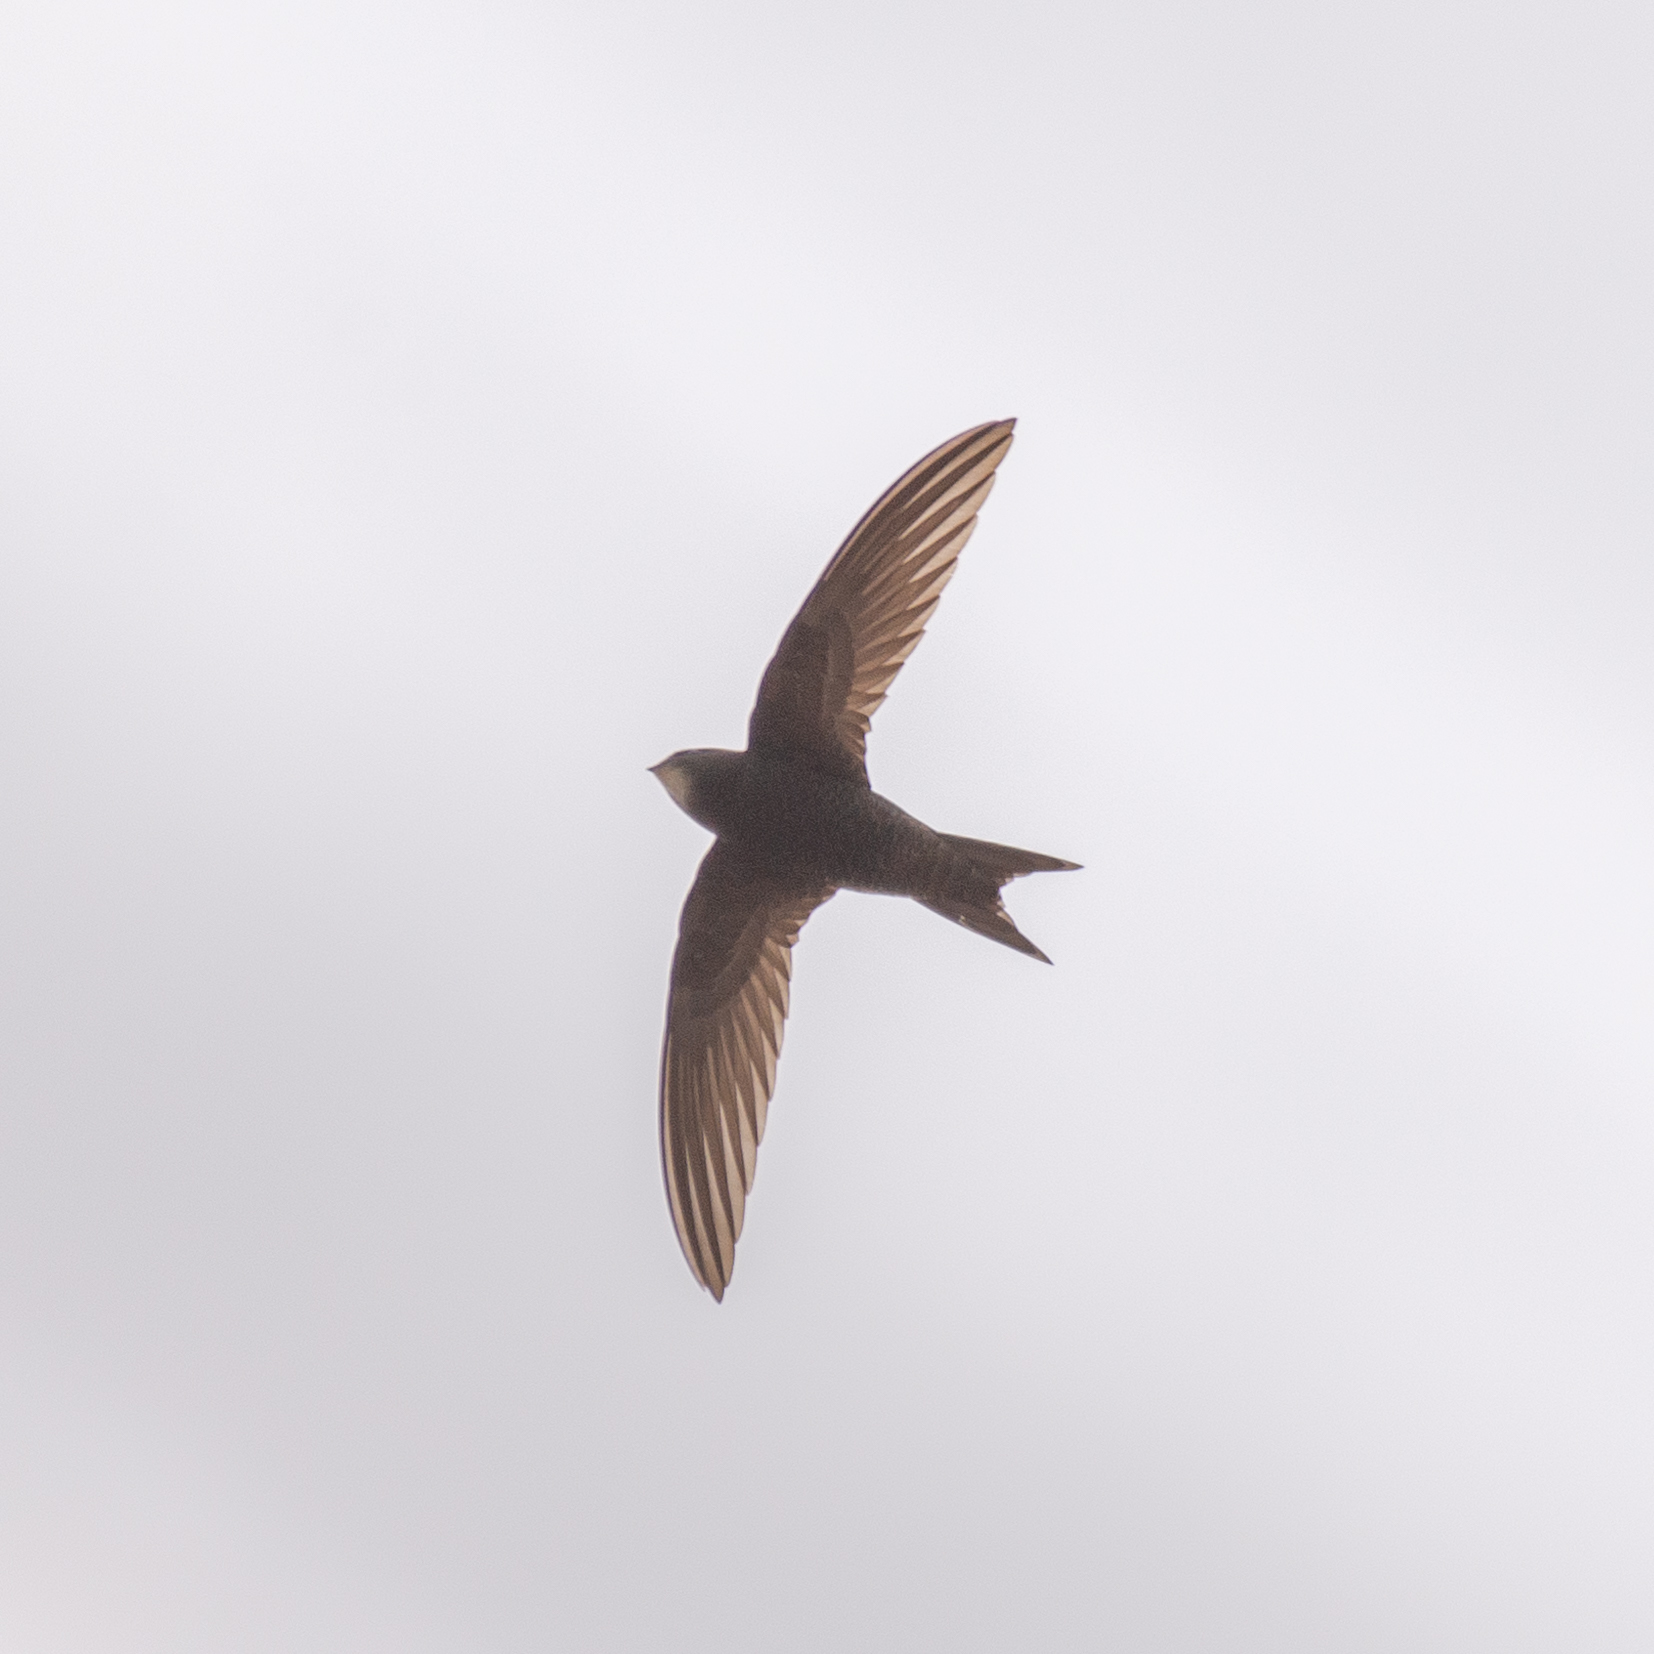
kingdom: Animalia
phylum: Chordata
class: Aves
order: Apodiformes
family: Apodidae
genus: Apus
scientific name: Apus apus
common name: Common swift
